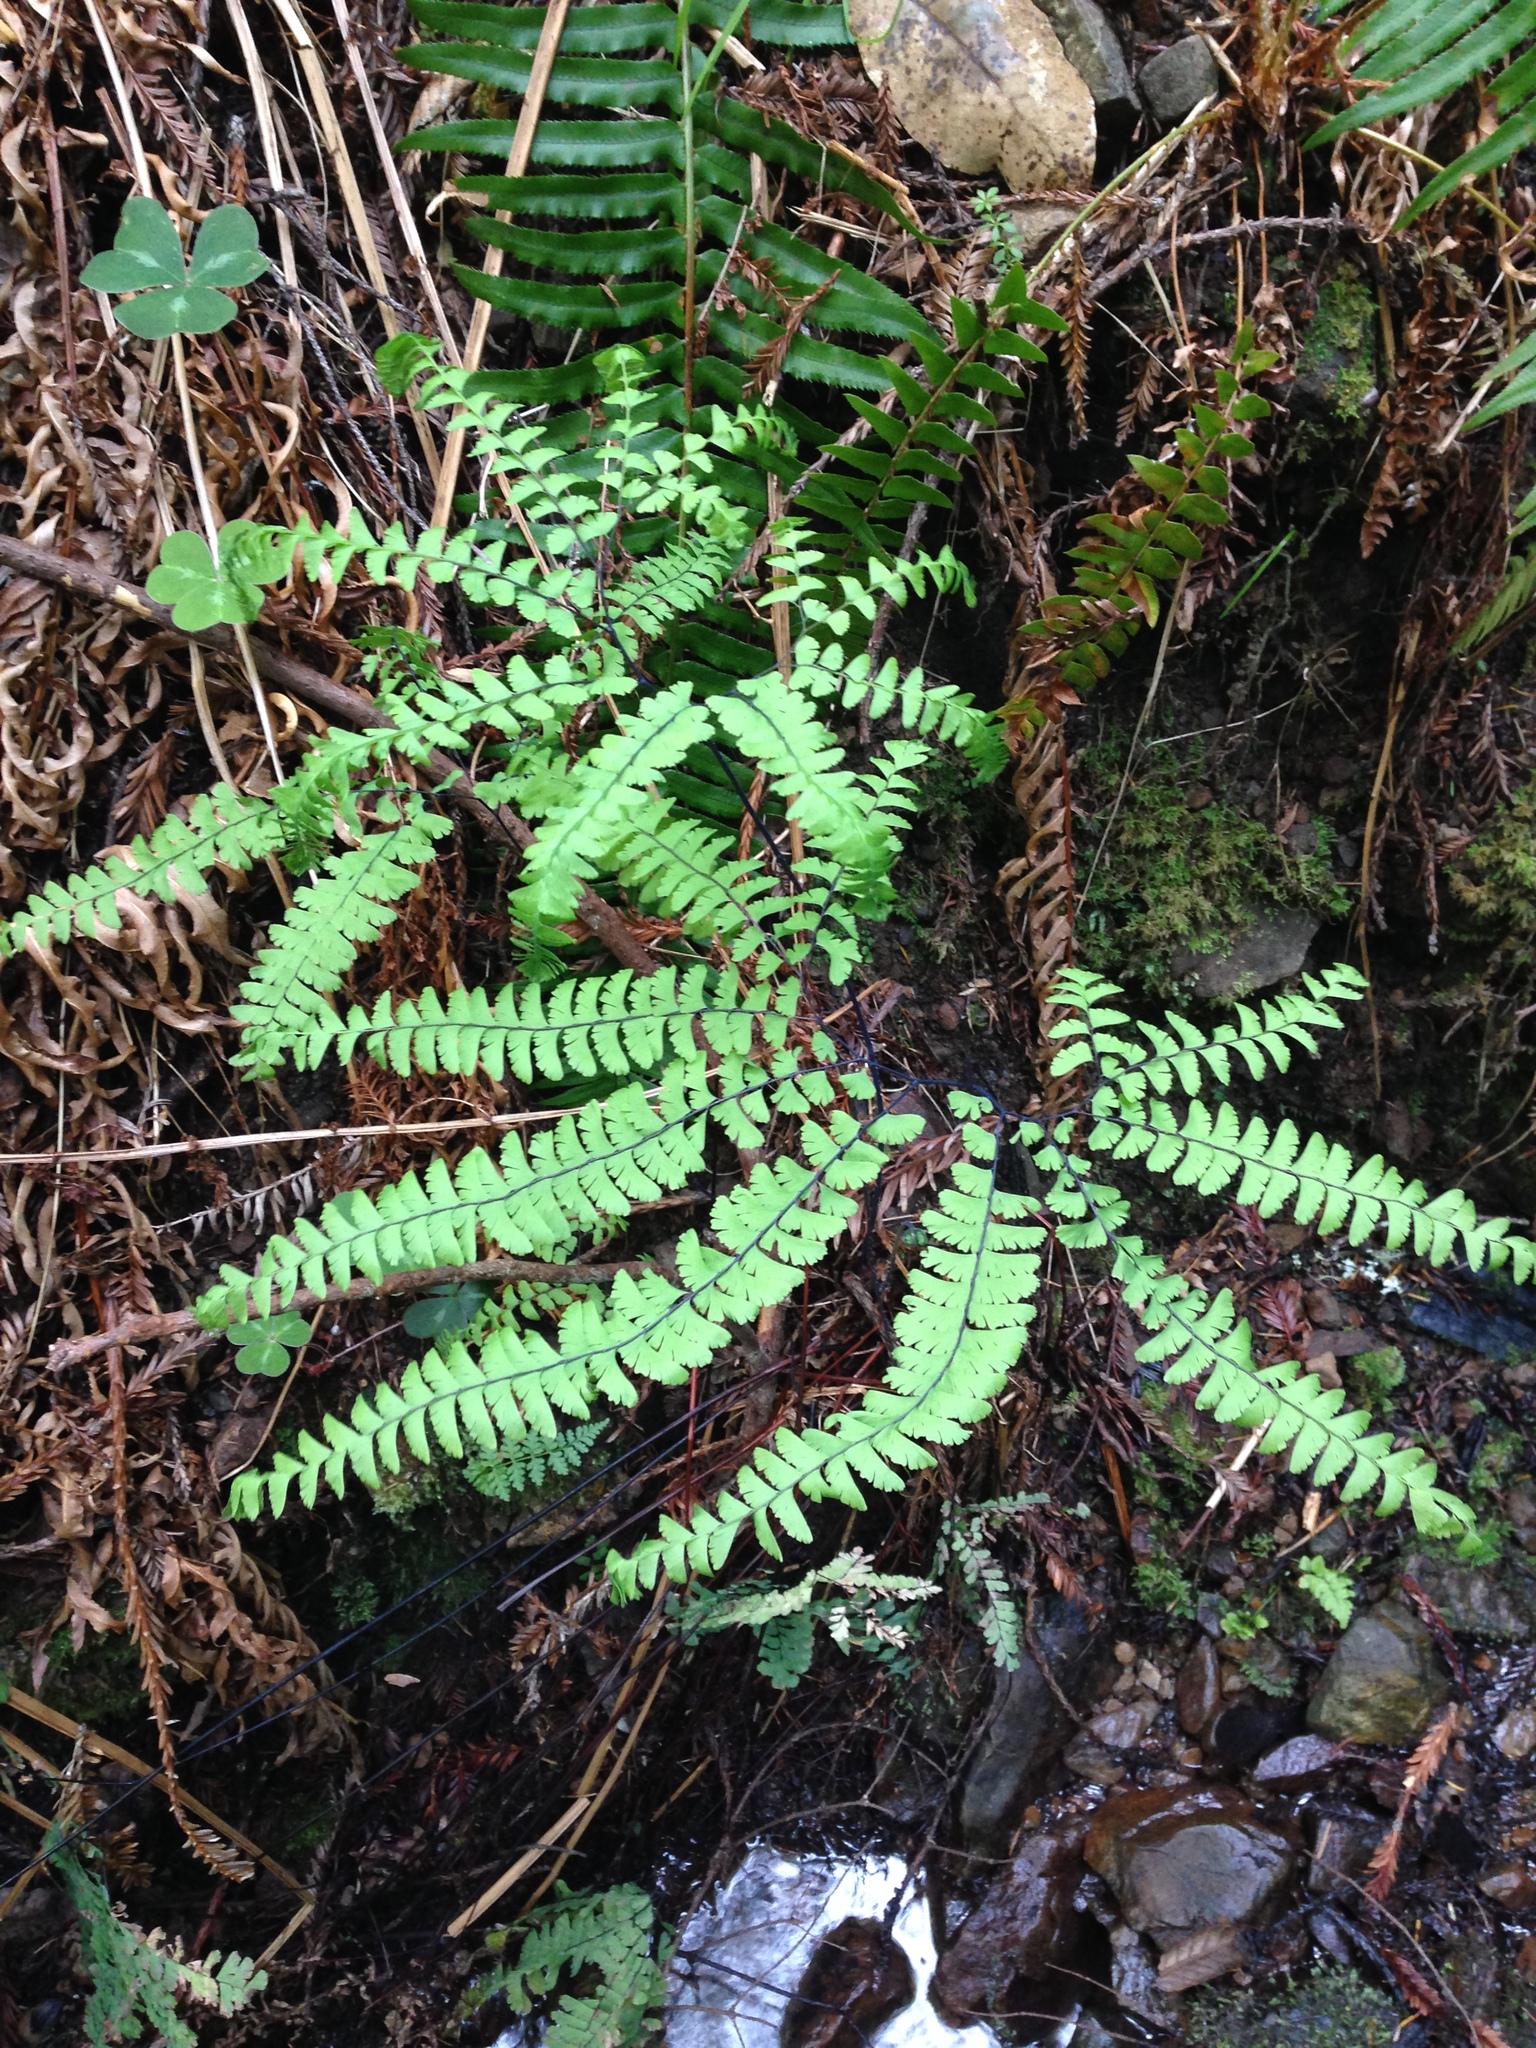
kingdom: Plantae
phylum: Tracheophyta
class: Polypodiopsida
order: Polypodiales
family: Pteridaceae
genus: Adiantum
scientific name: Adiantum aleuticum
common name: Aleutian maidenhair fern
